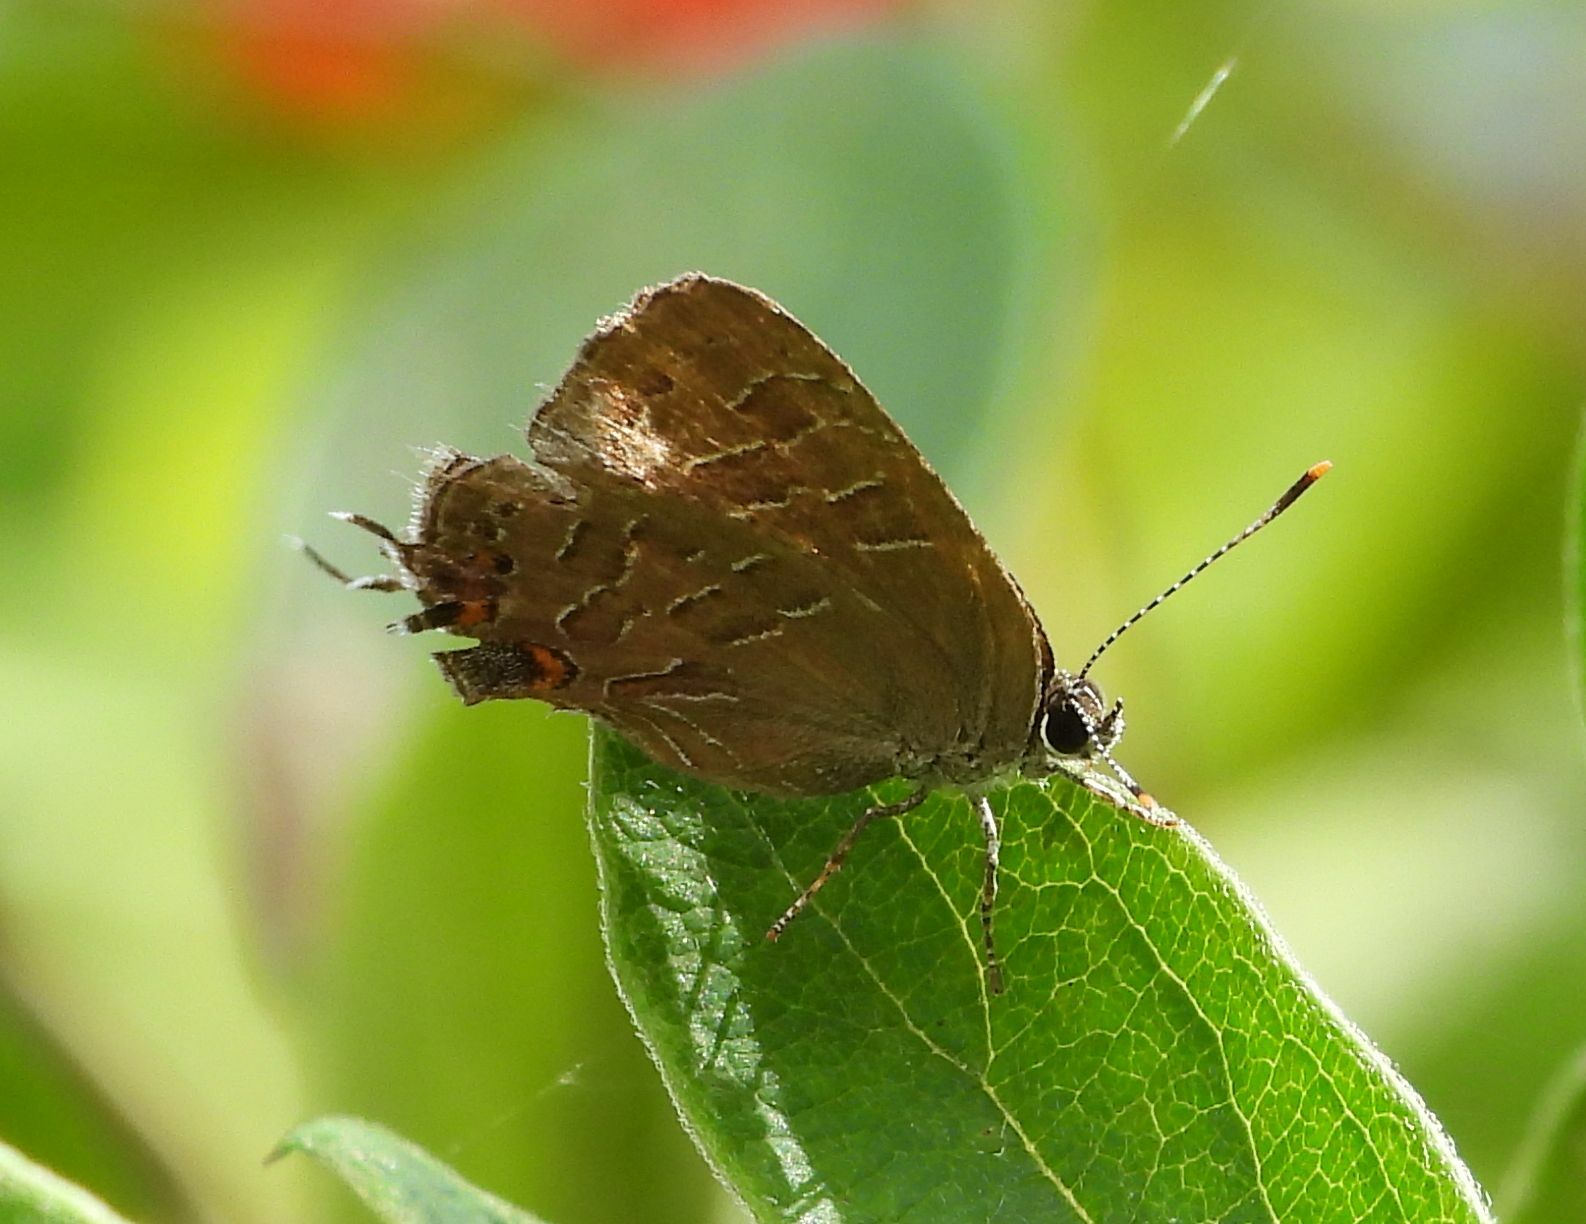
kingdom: Animalia
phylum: Arthropoda
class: Insecta
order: Lepidoptera
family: Lycaenidae
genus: Satyrium
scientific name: Satyrium liparops
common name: Striped hairstreak
